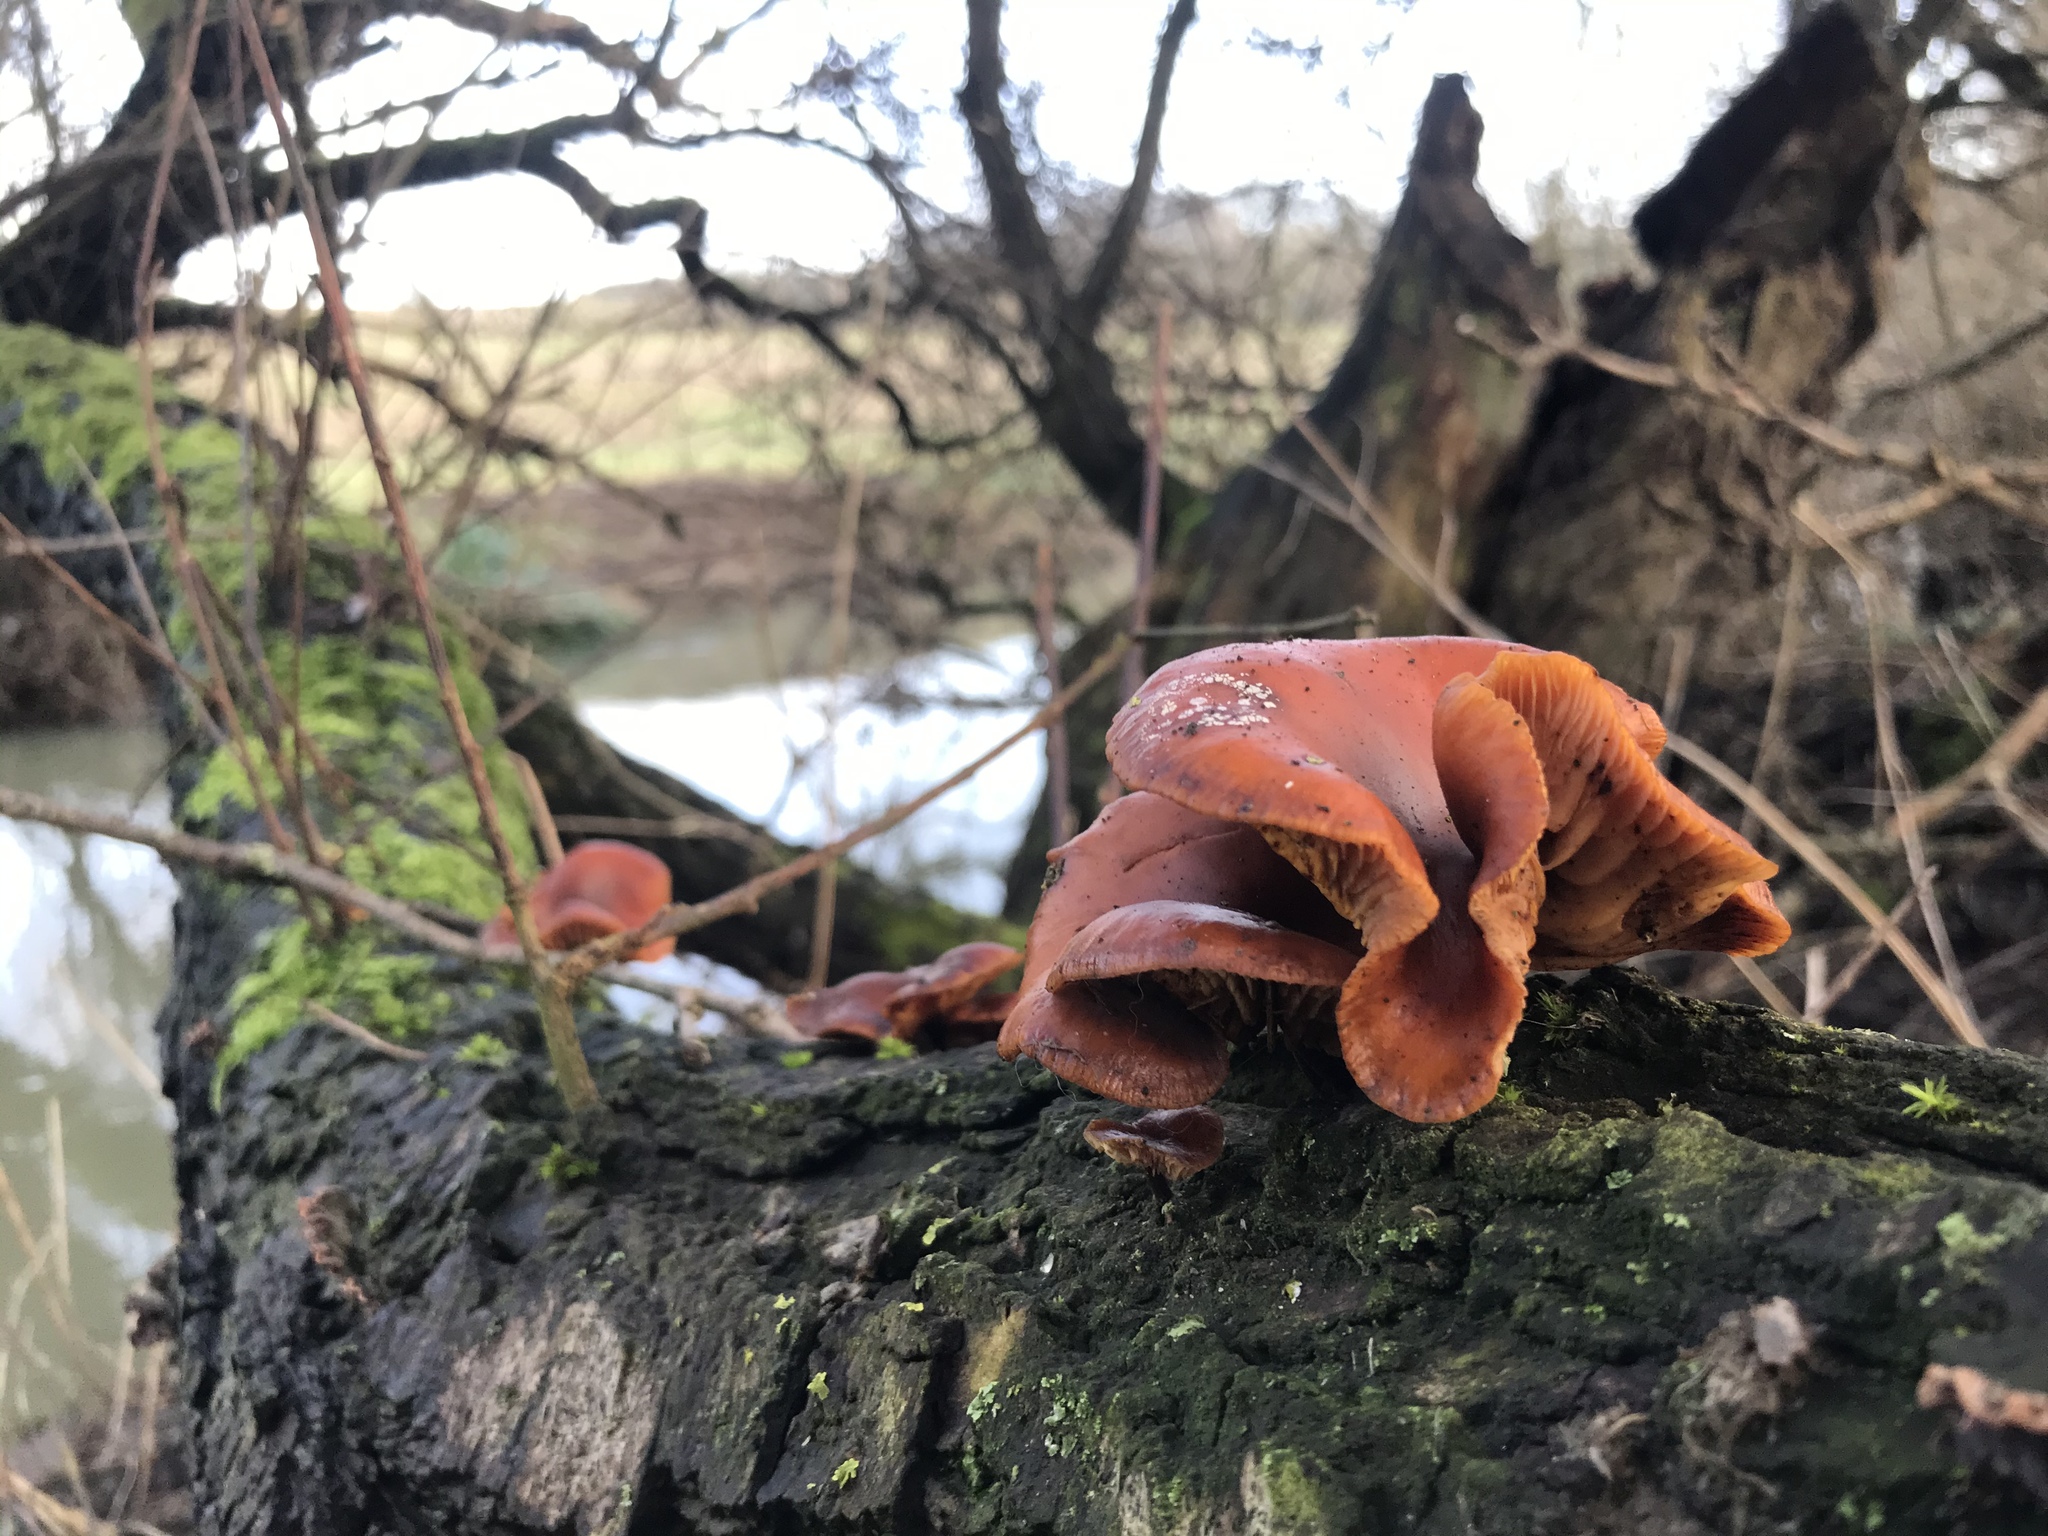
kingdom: Fungi
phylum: Basidiomycota
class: Agaricomycetes
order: Agaricales
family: Physalacriaceae
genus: Flammulina
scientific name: Flammulina
